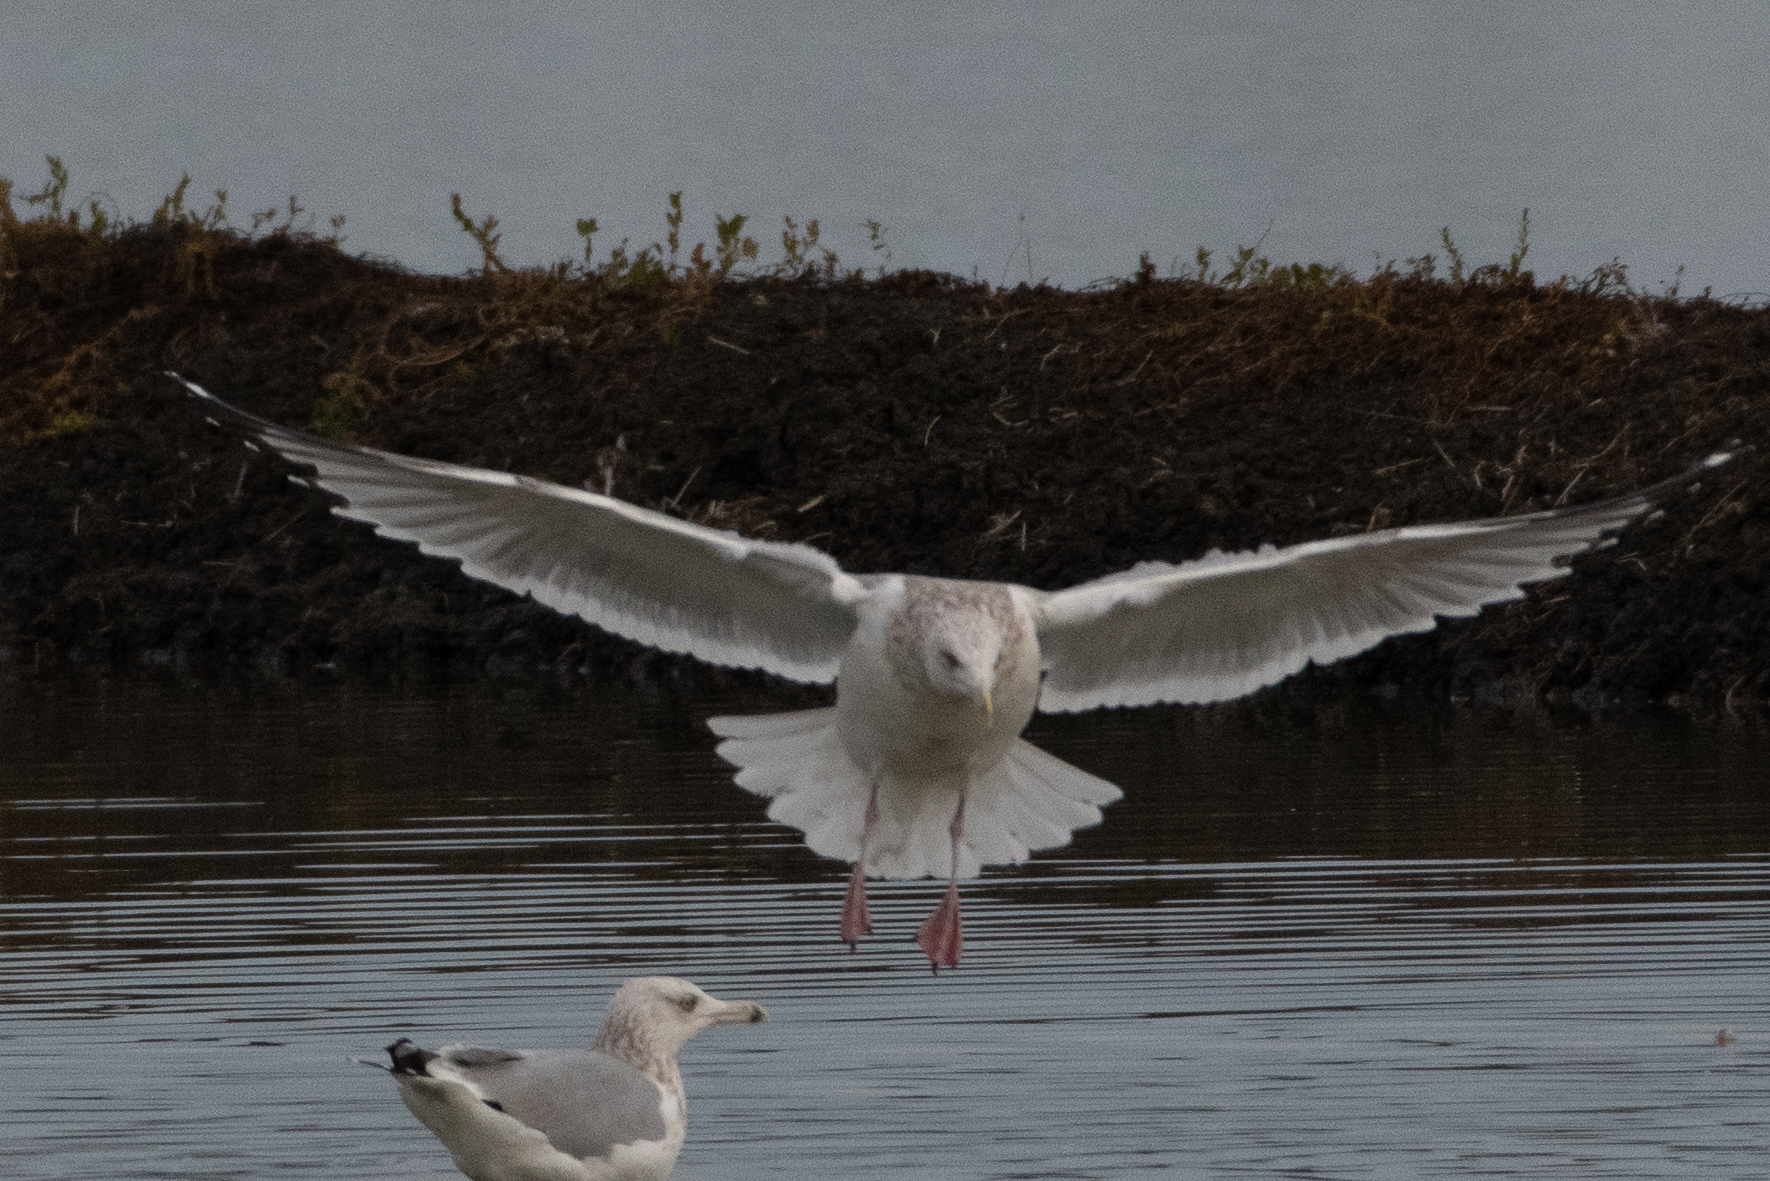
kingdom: Animalia
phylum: Chordata
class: Aves
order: Charadriiformes
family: Laridae
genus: Larus
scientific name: Larus argentatus
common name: Herring gull
